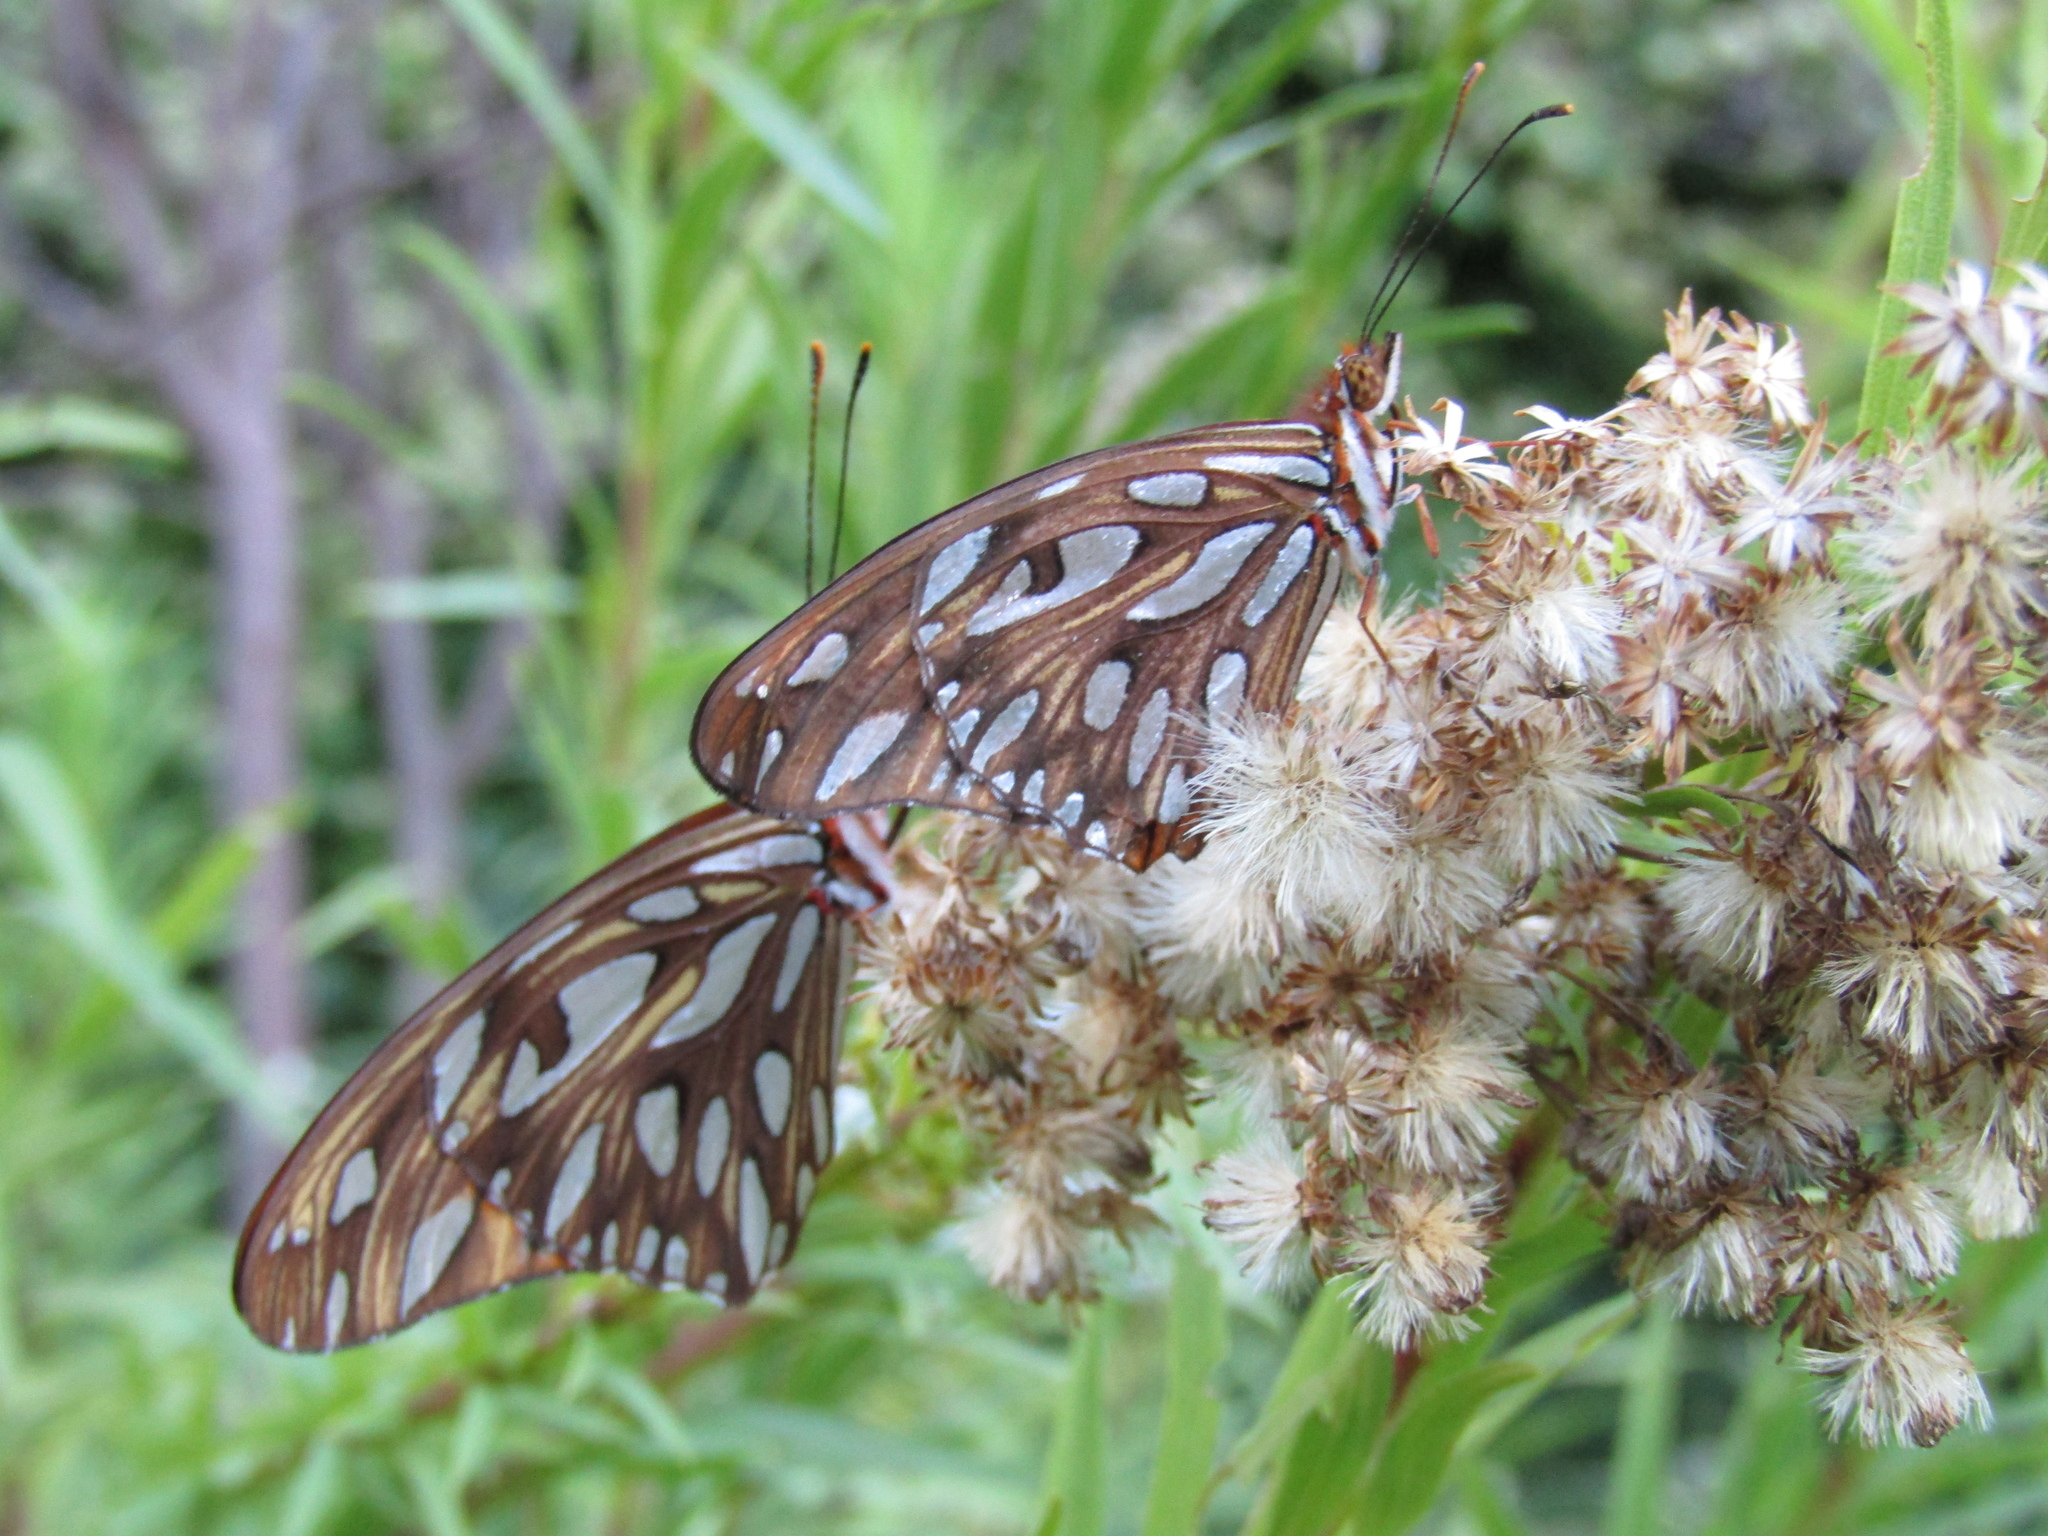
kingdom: Animalia
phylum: Arthropoda
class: Insecta
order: Lepidoptera
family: Nymphalidae
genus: Dione
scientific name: Dione vanillae
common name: Gulf fritillary
